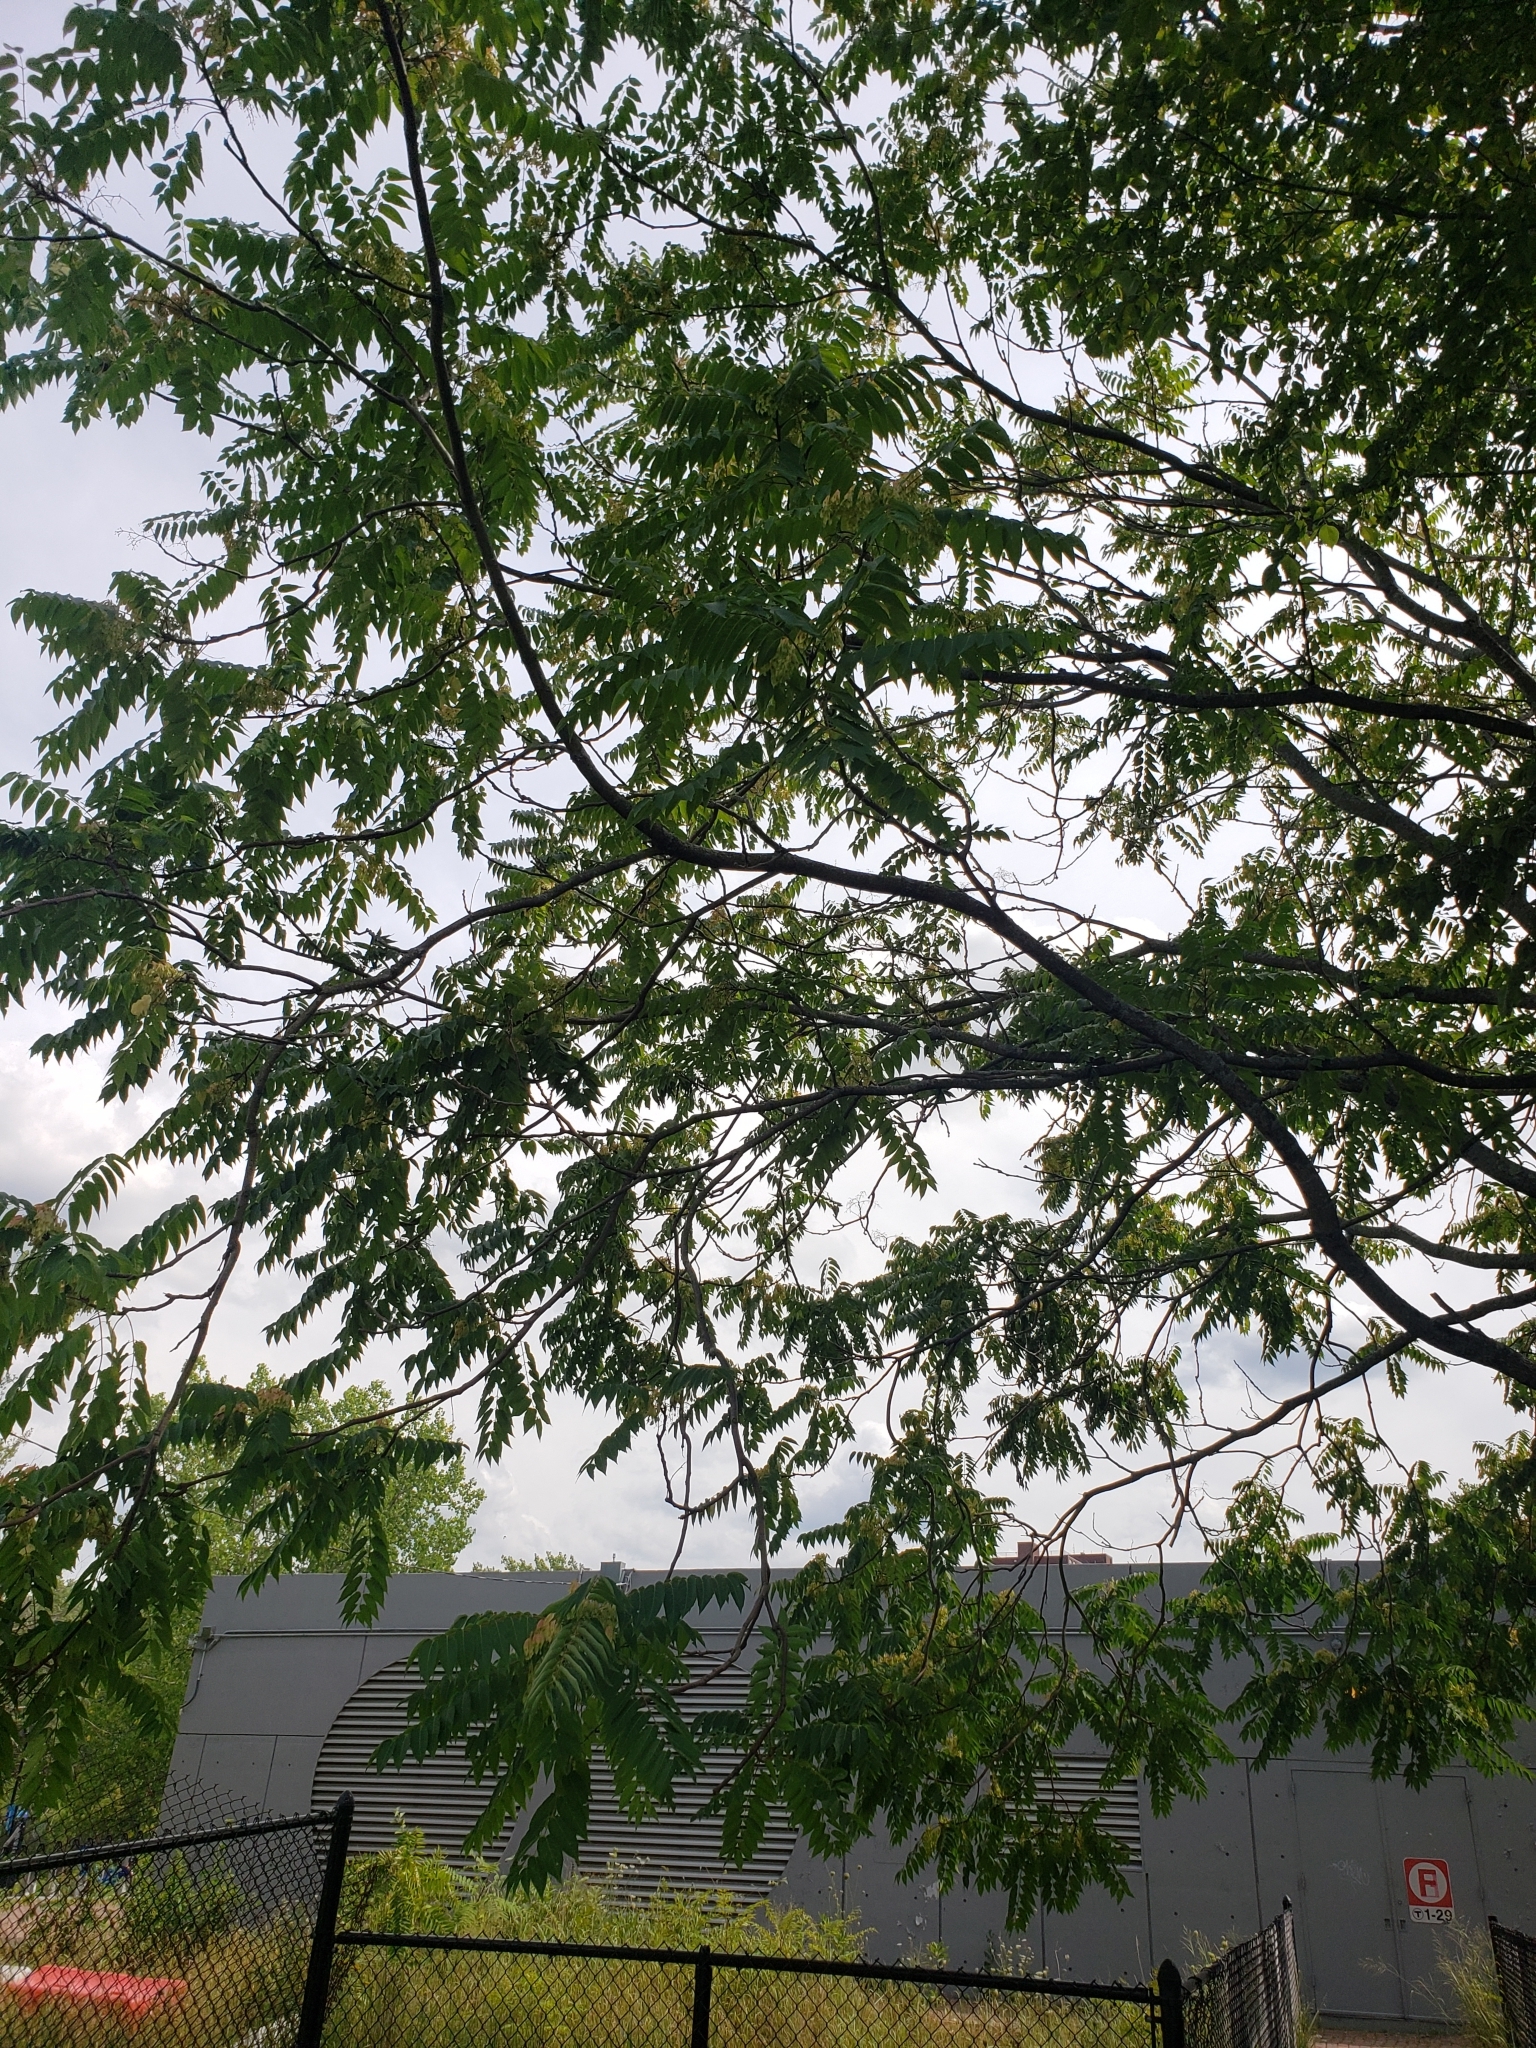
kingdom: Plantae
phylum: Tracheophyta
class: Magnoliopsida
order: Sapindales
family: Simaroubaceae
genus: Ailanthus
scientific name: Ailanthus altissima
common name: Tree-of-heaven
